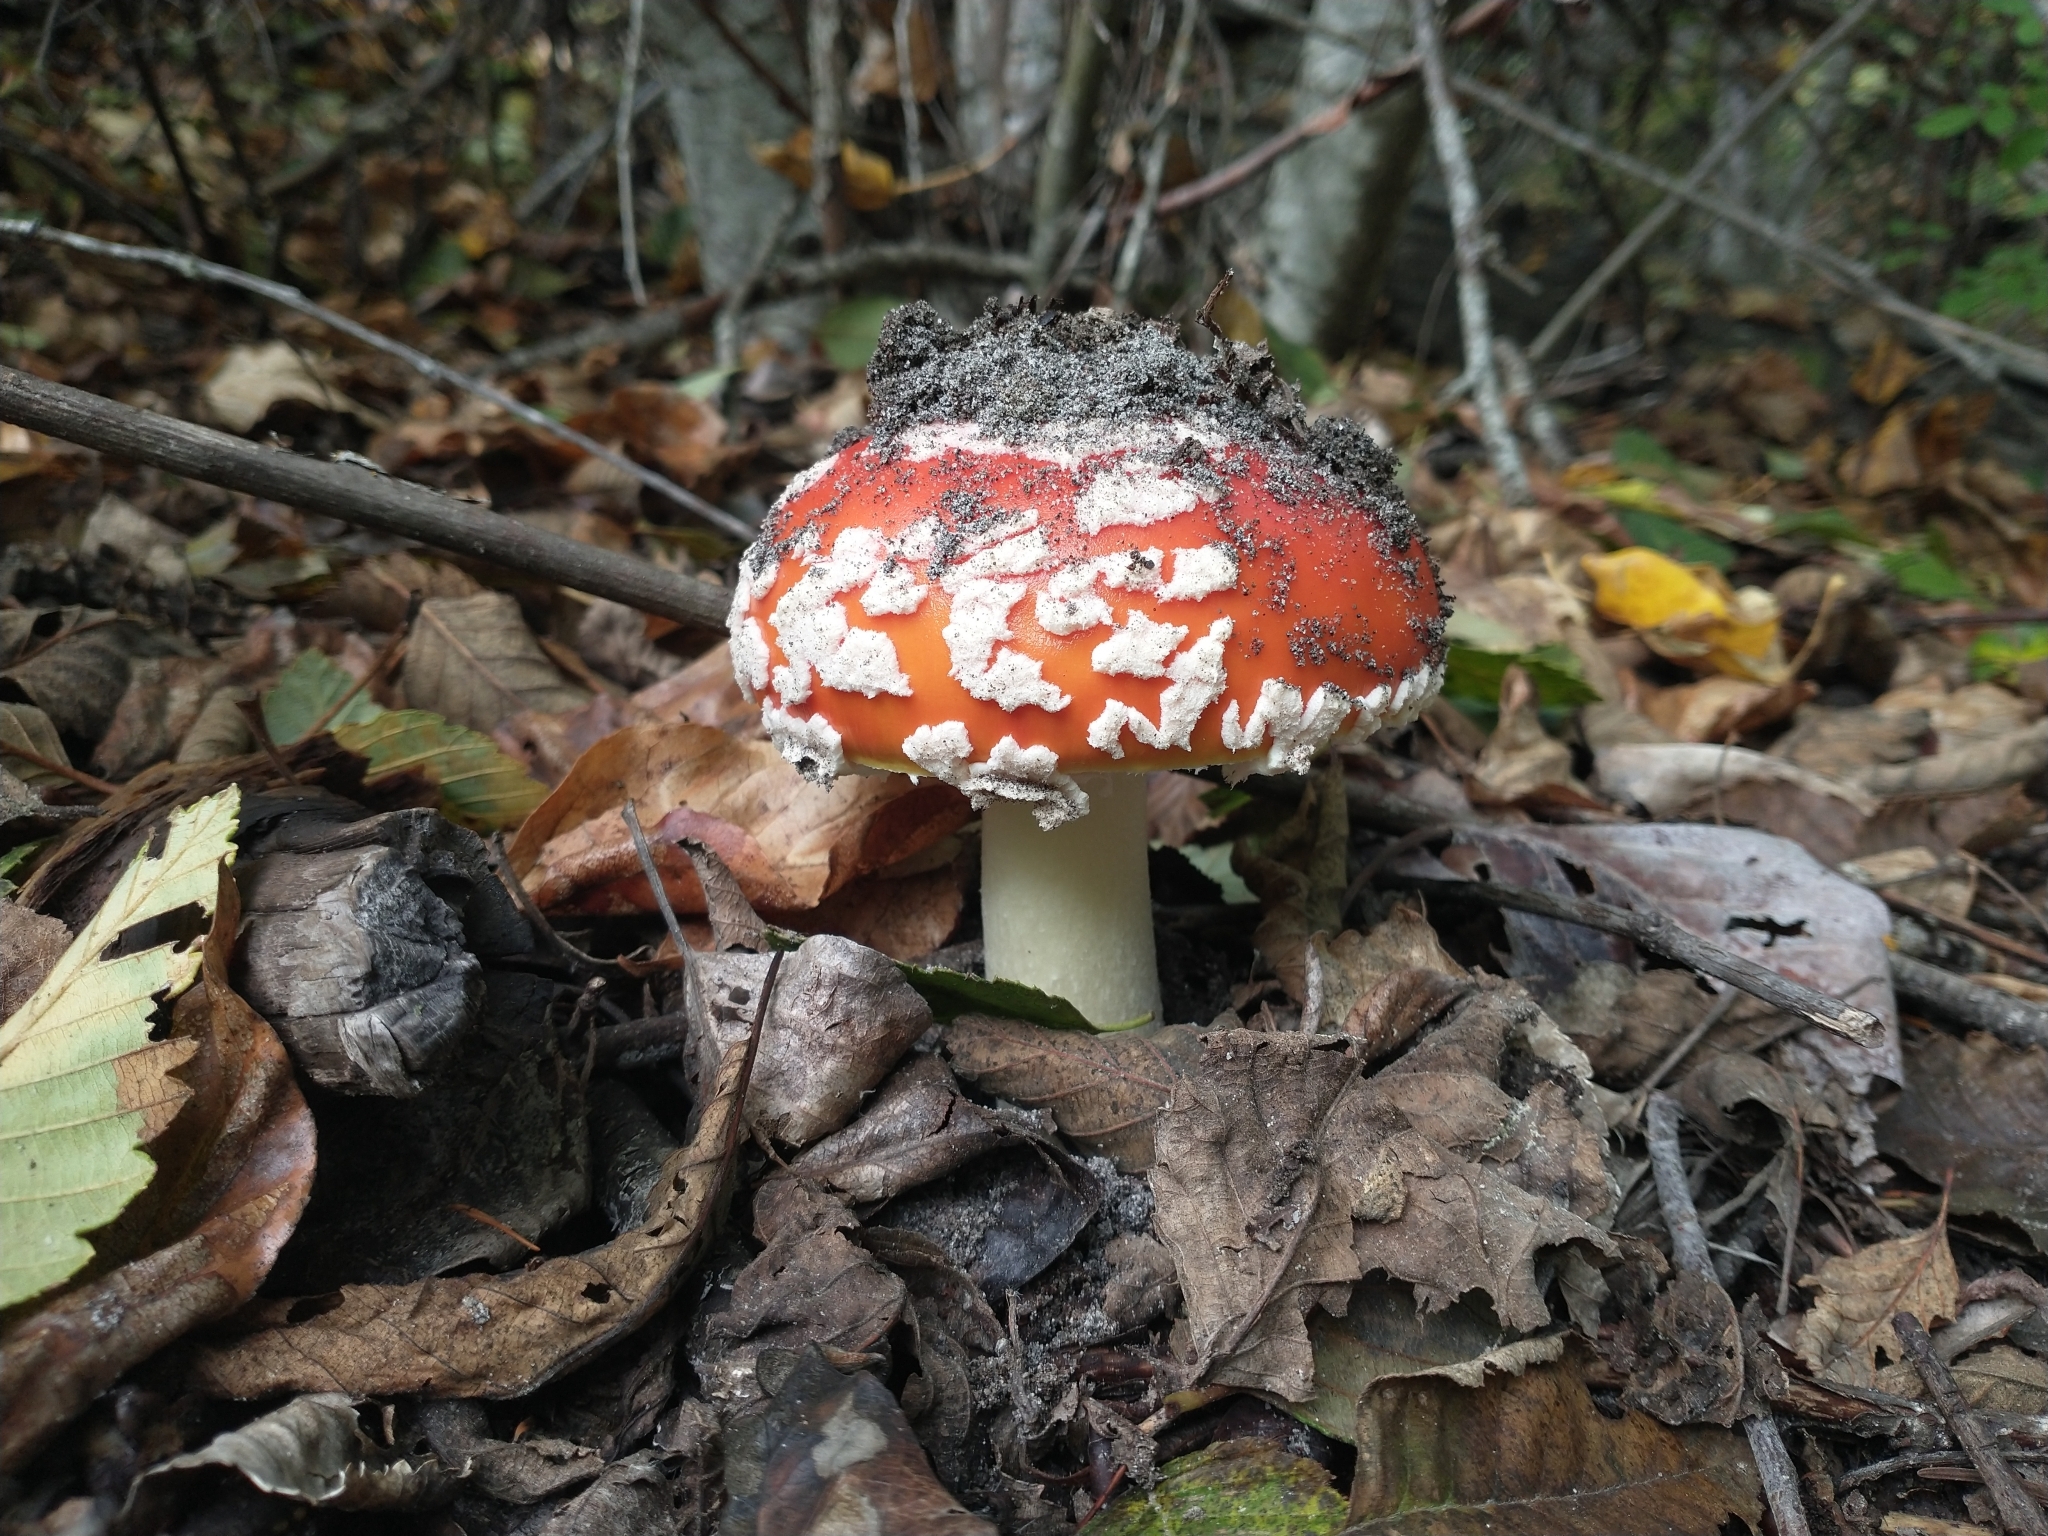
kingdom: Fungi
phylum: Basidiomycota
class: Agaricomycetes
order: Agaricales
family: Amanitaceae
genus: Amanita
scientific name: Amanita muscaria
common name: Fly agaric
